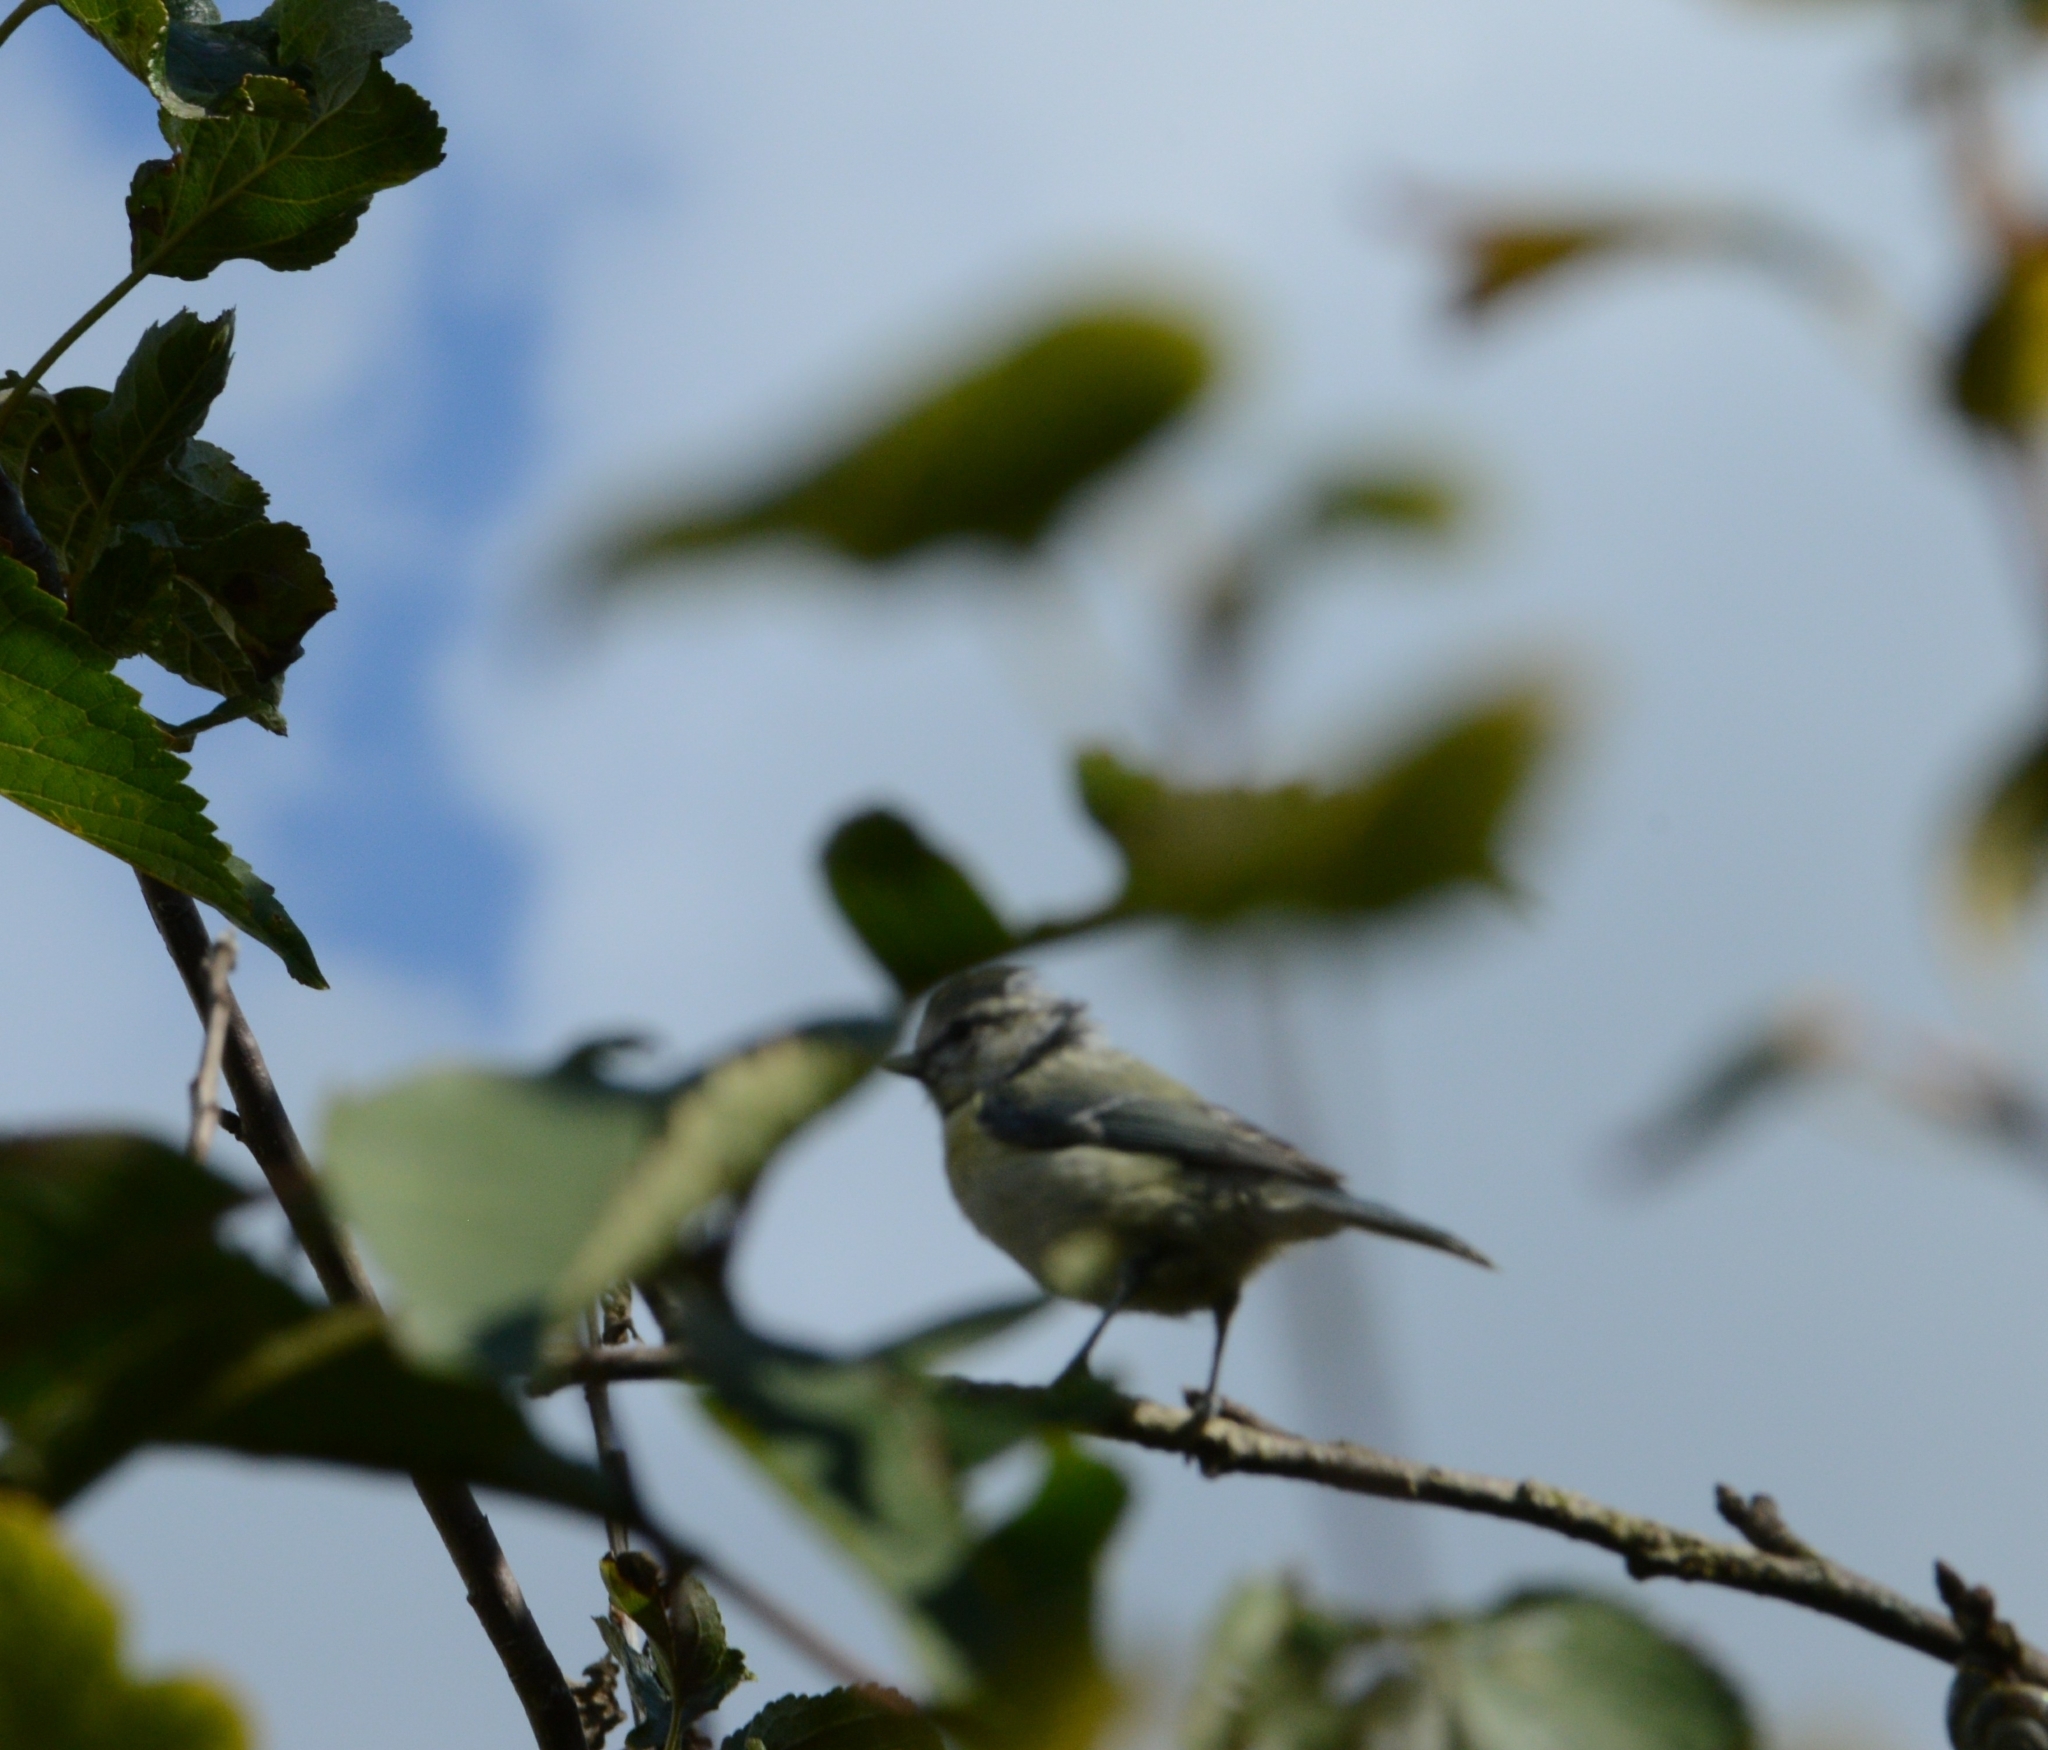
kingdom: Animalia
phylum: Chordata
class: Aves
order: Passeriformes
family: Paridae
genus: Cyanistes
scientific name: Cyanistes caeruleus
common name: Eurasian blue tit
